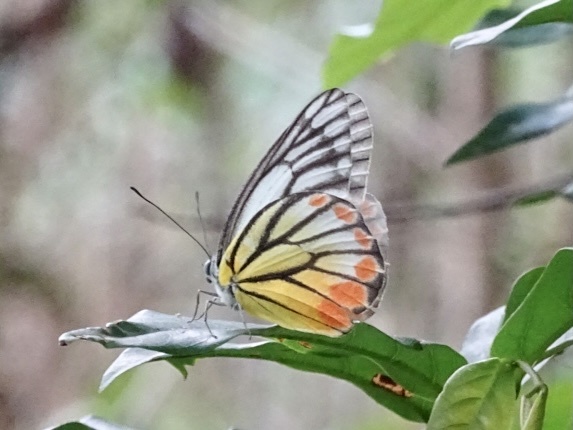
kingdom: Animalia
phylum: Arthropoda
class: Insecta
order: Lepidoptera
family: Pieridae
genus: Delias
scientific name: Delias hyparete
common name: Painted jezebel
